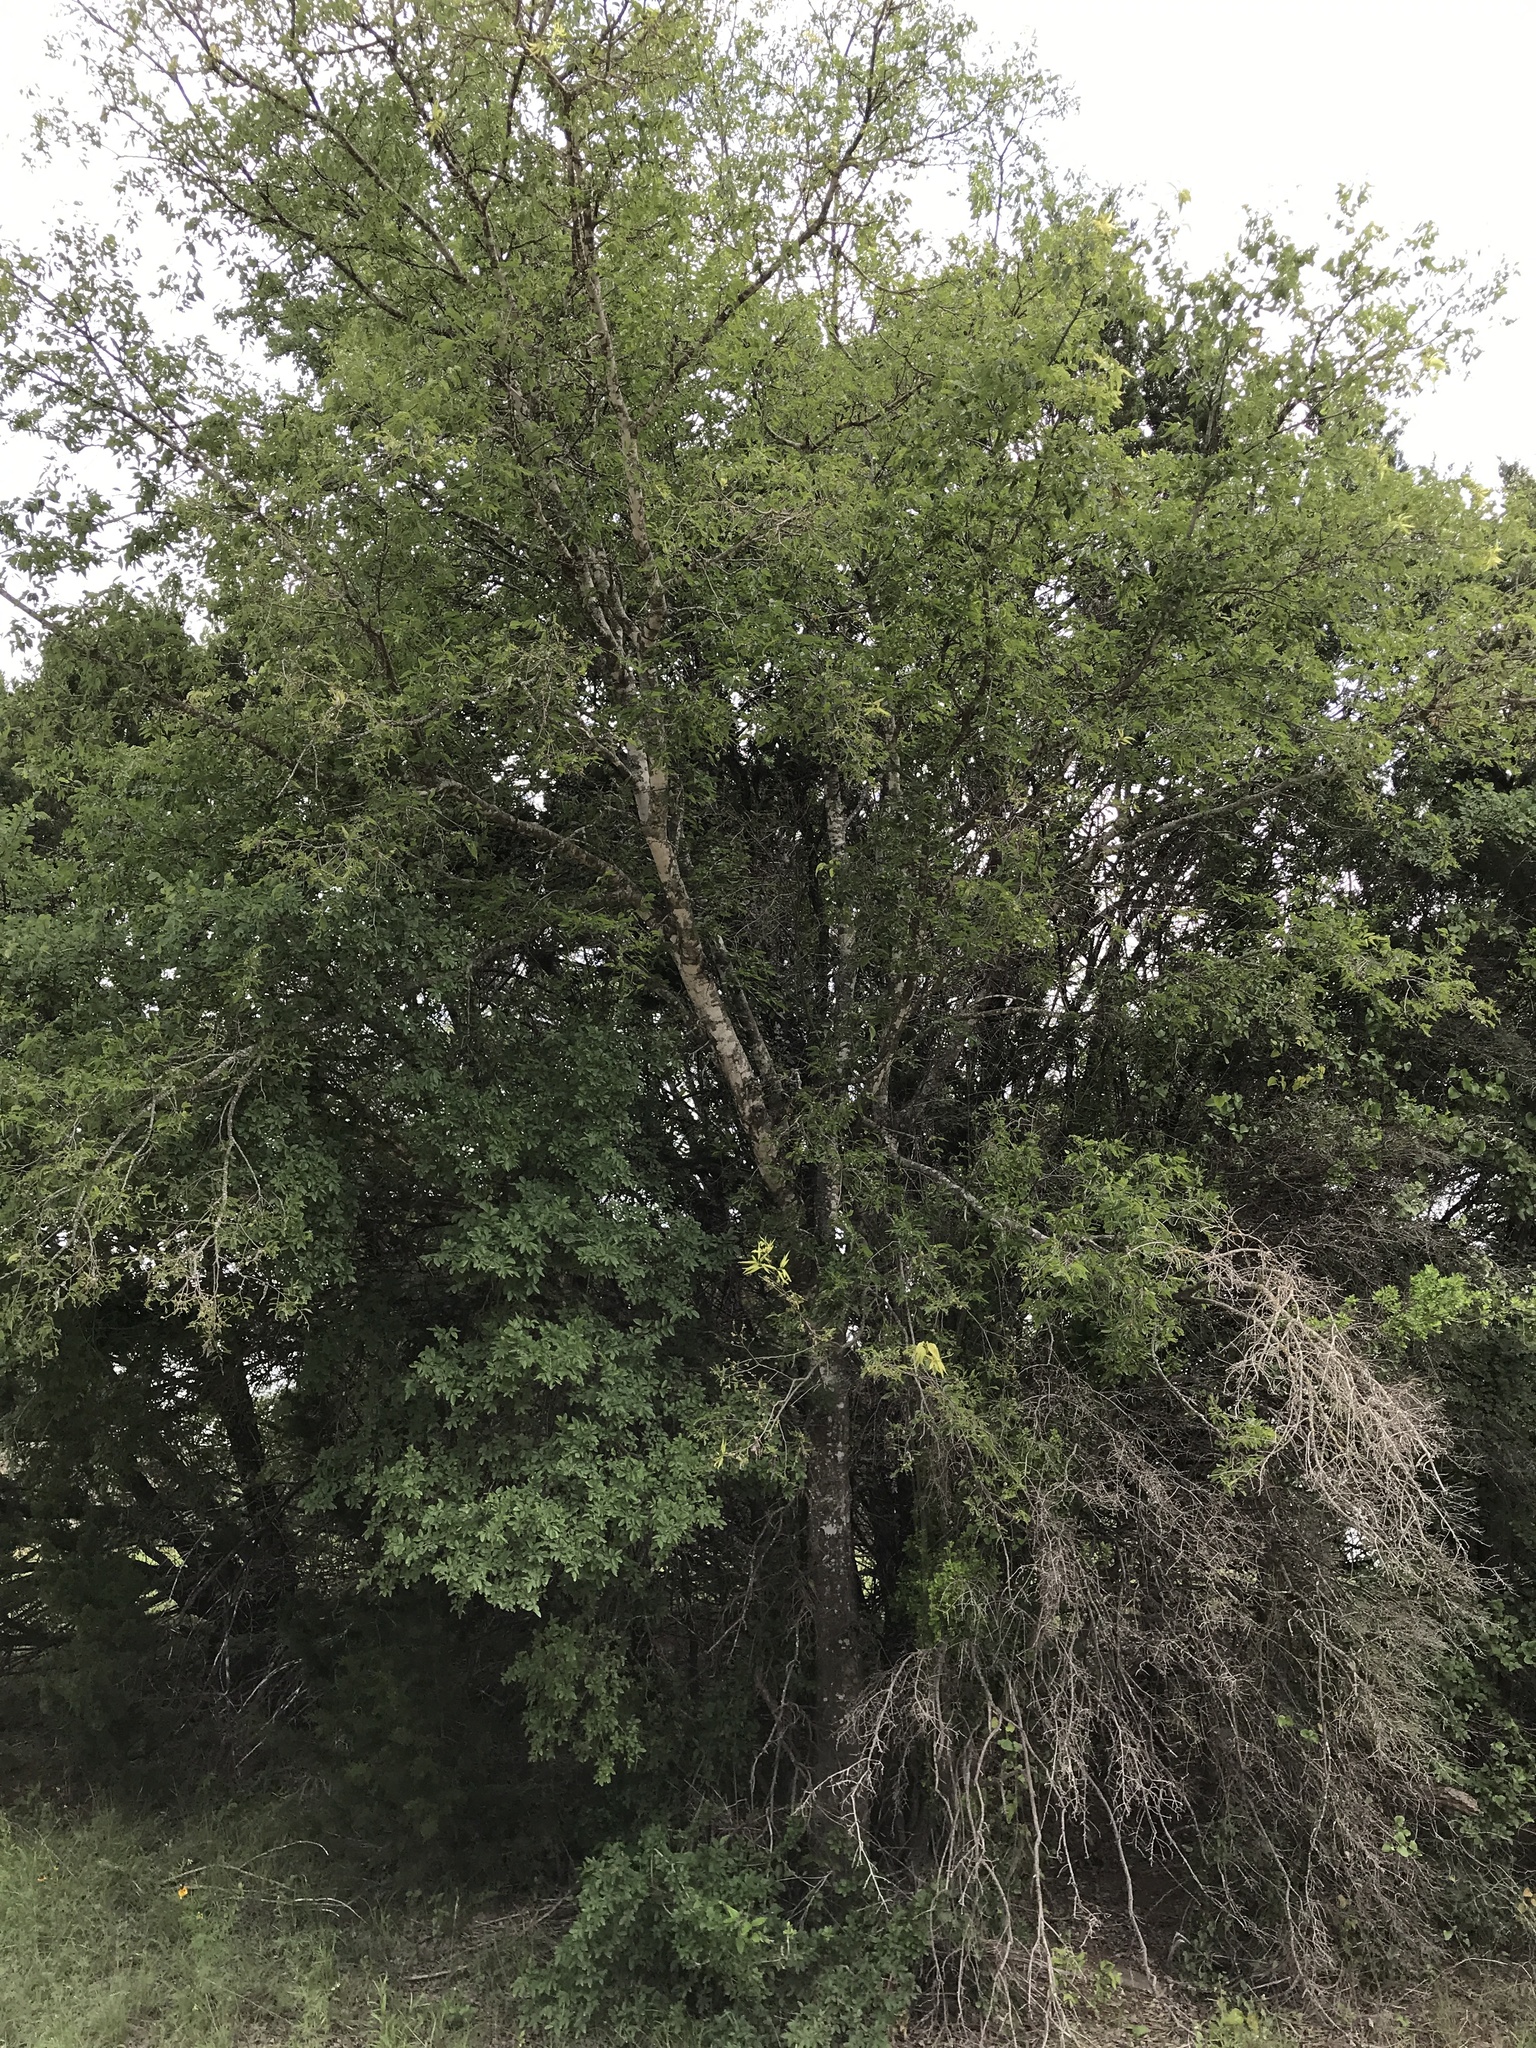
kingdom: Plantae
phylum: Tracheophyta
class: Magnoliopsida
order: Rosales
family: Cannabaceae
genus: Celtis
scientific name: Celtis laevigata
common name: Sugarberry
